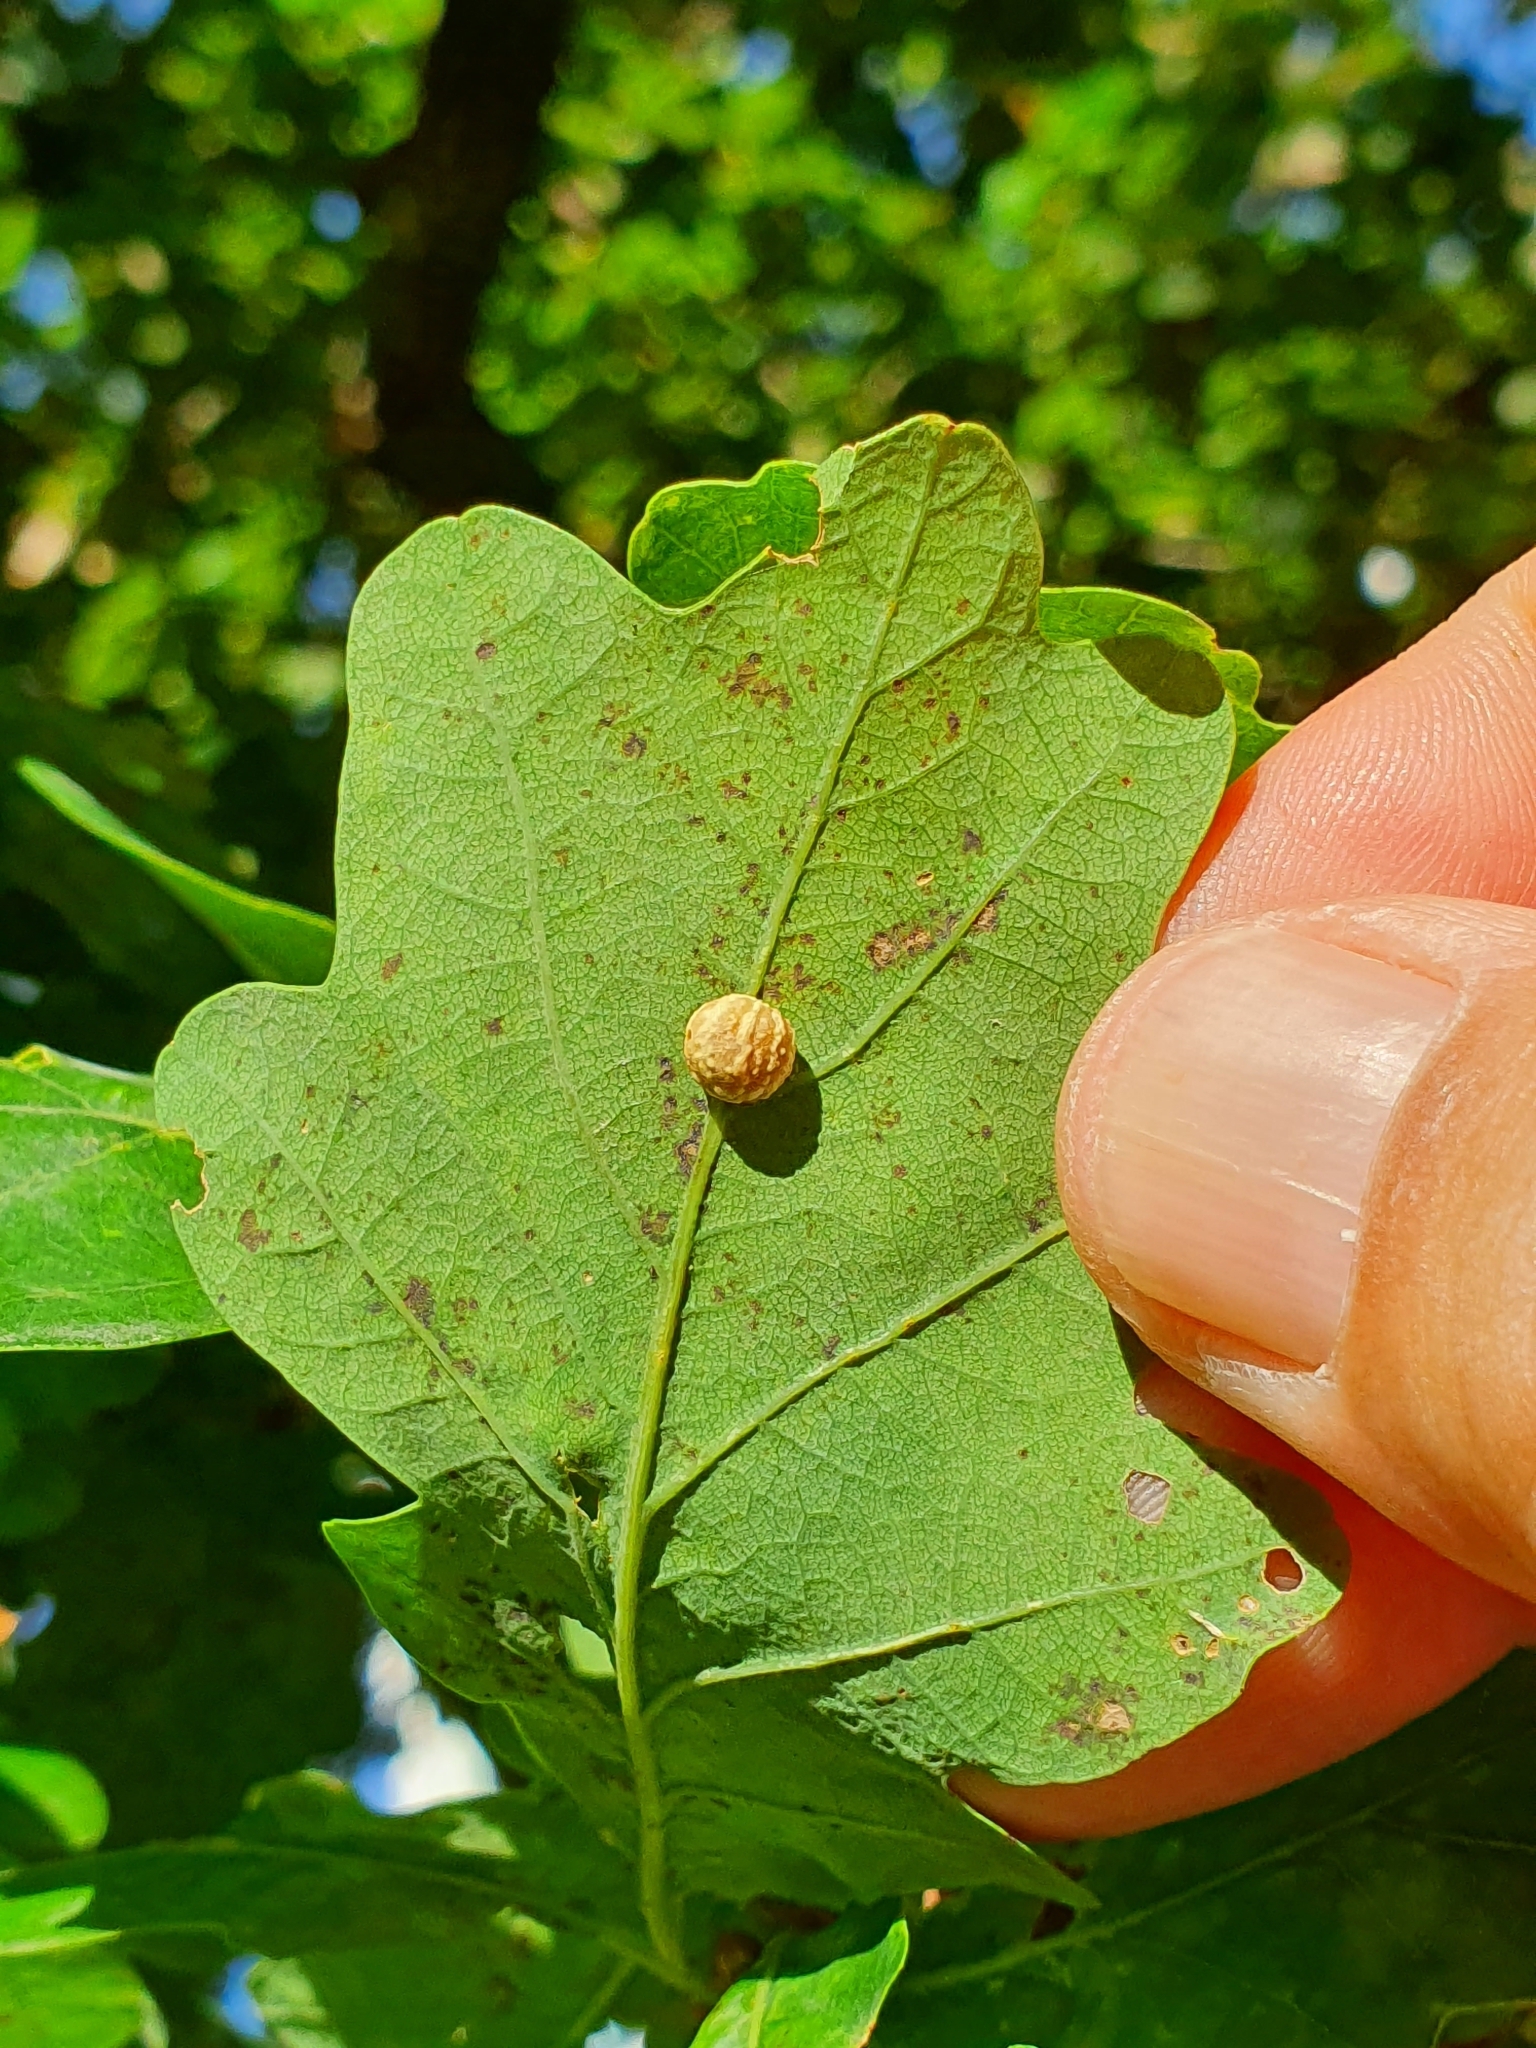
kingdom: Animalia
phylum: Arthropoda
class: Insecta
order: Hymenoptera
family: Cynipidae
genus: Cynips
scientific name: Cynips longiventris
